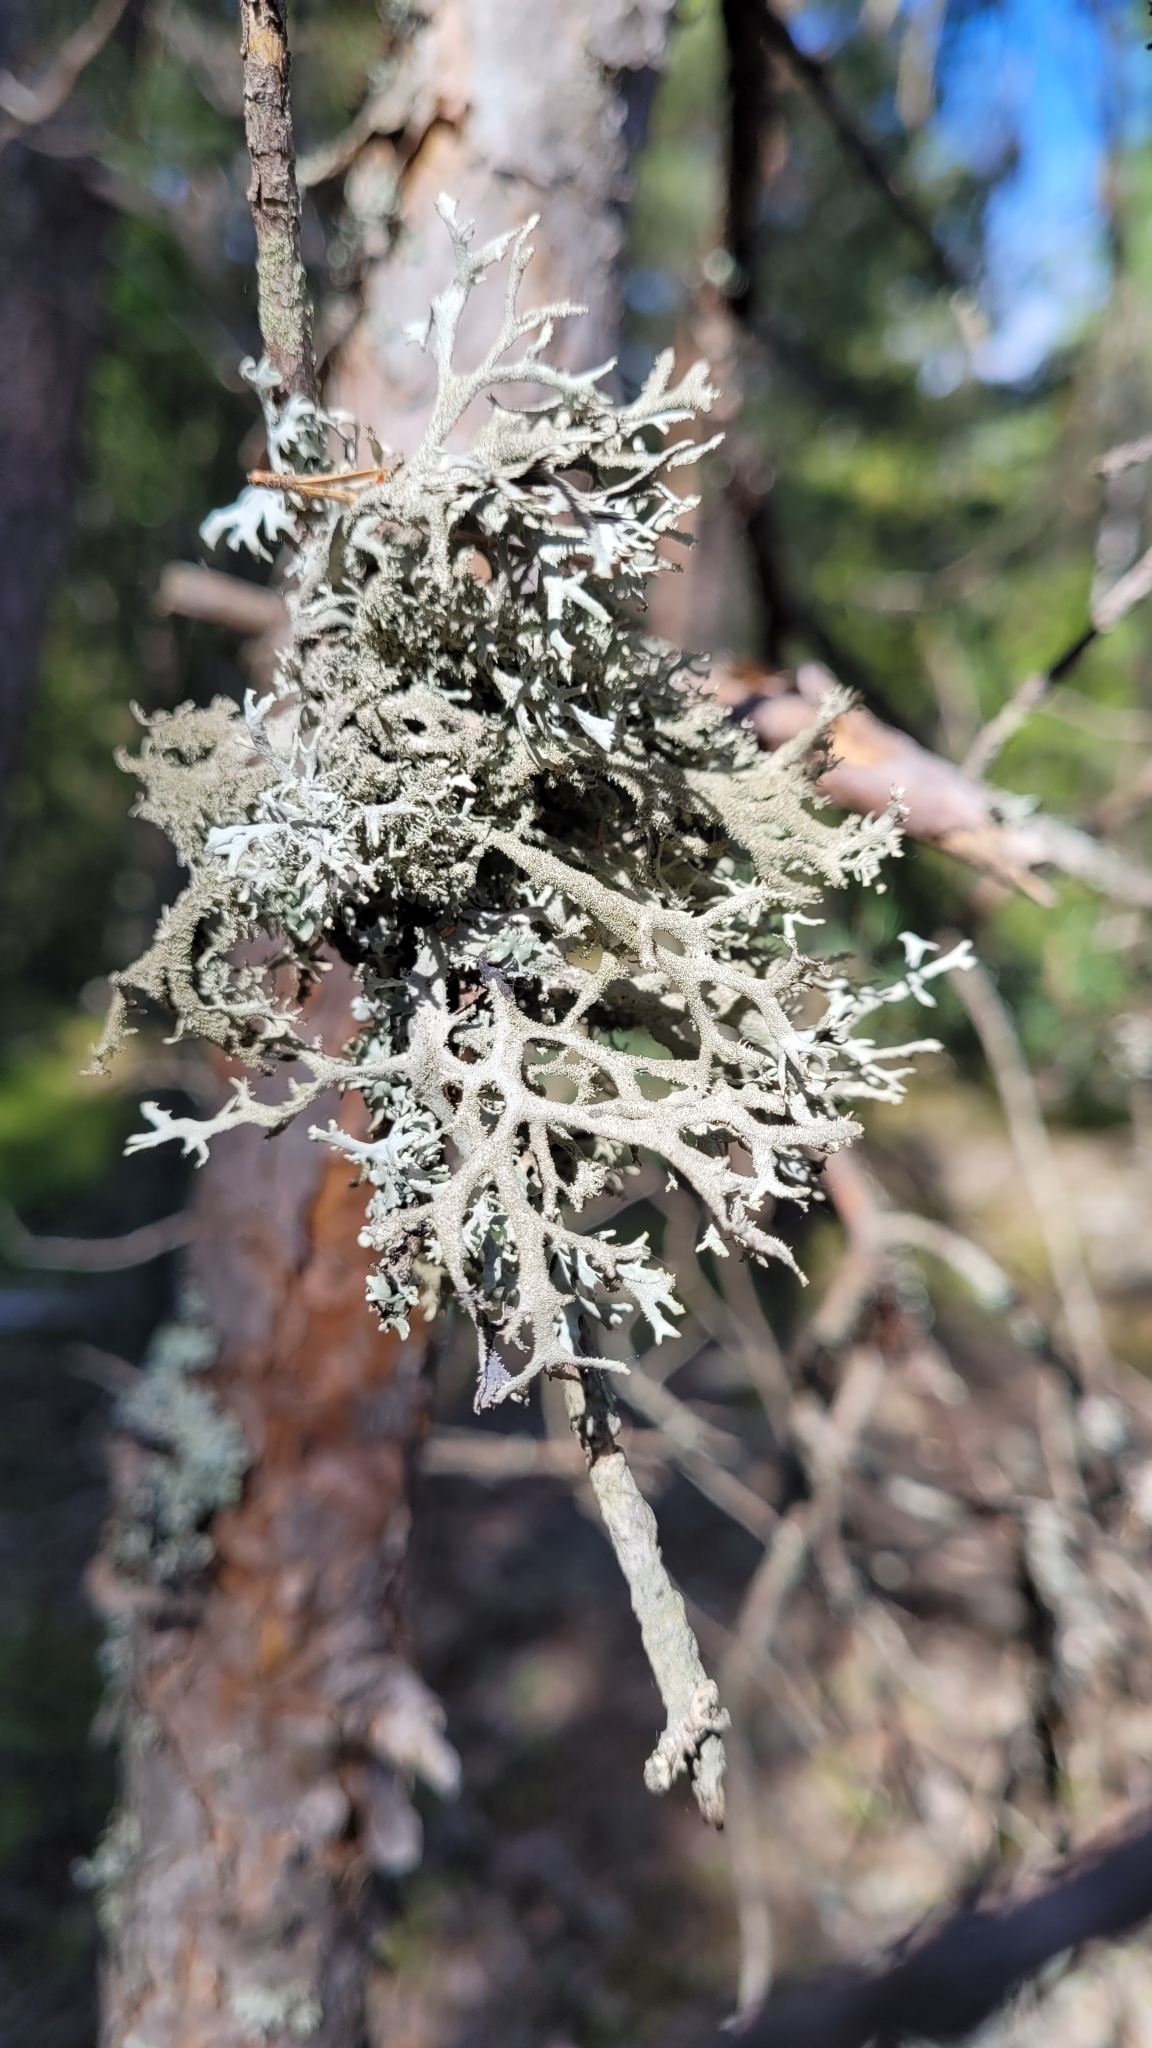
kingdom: Fungi
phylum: Ascomycota
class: Lecanoromycetes
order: Lecanorales
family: Parmeliaceae
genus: Pseudevernia
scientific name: Pseudevernia furfuracea
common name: Tree moss
